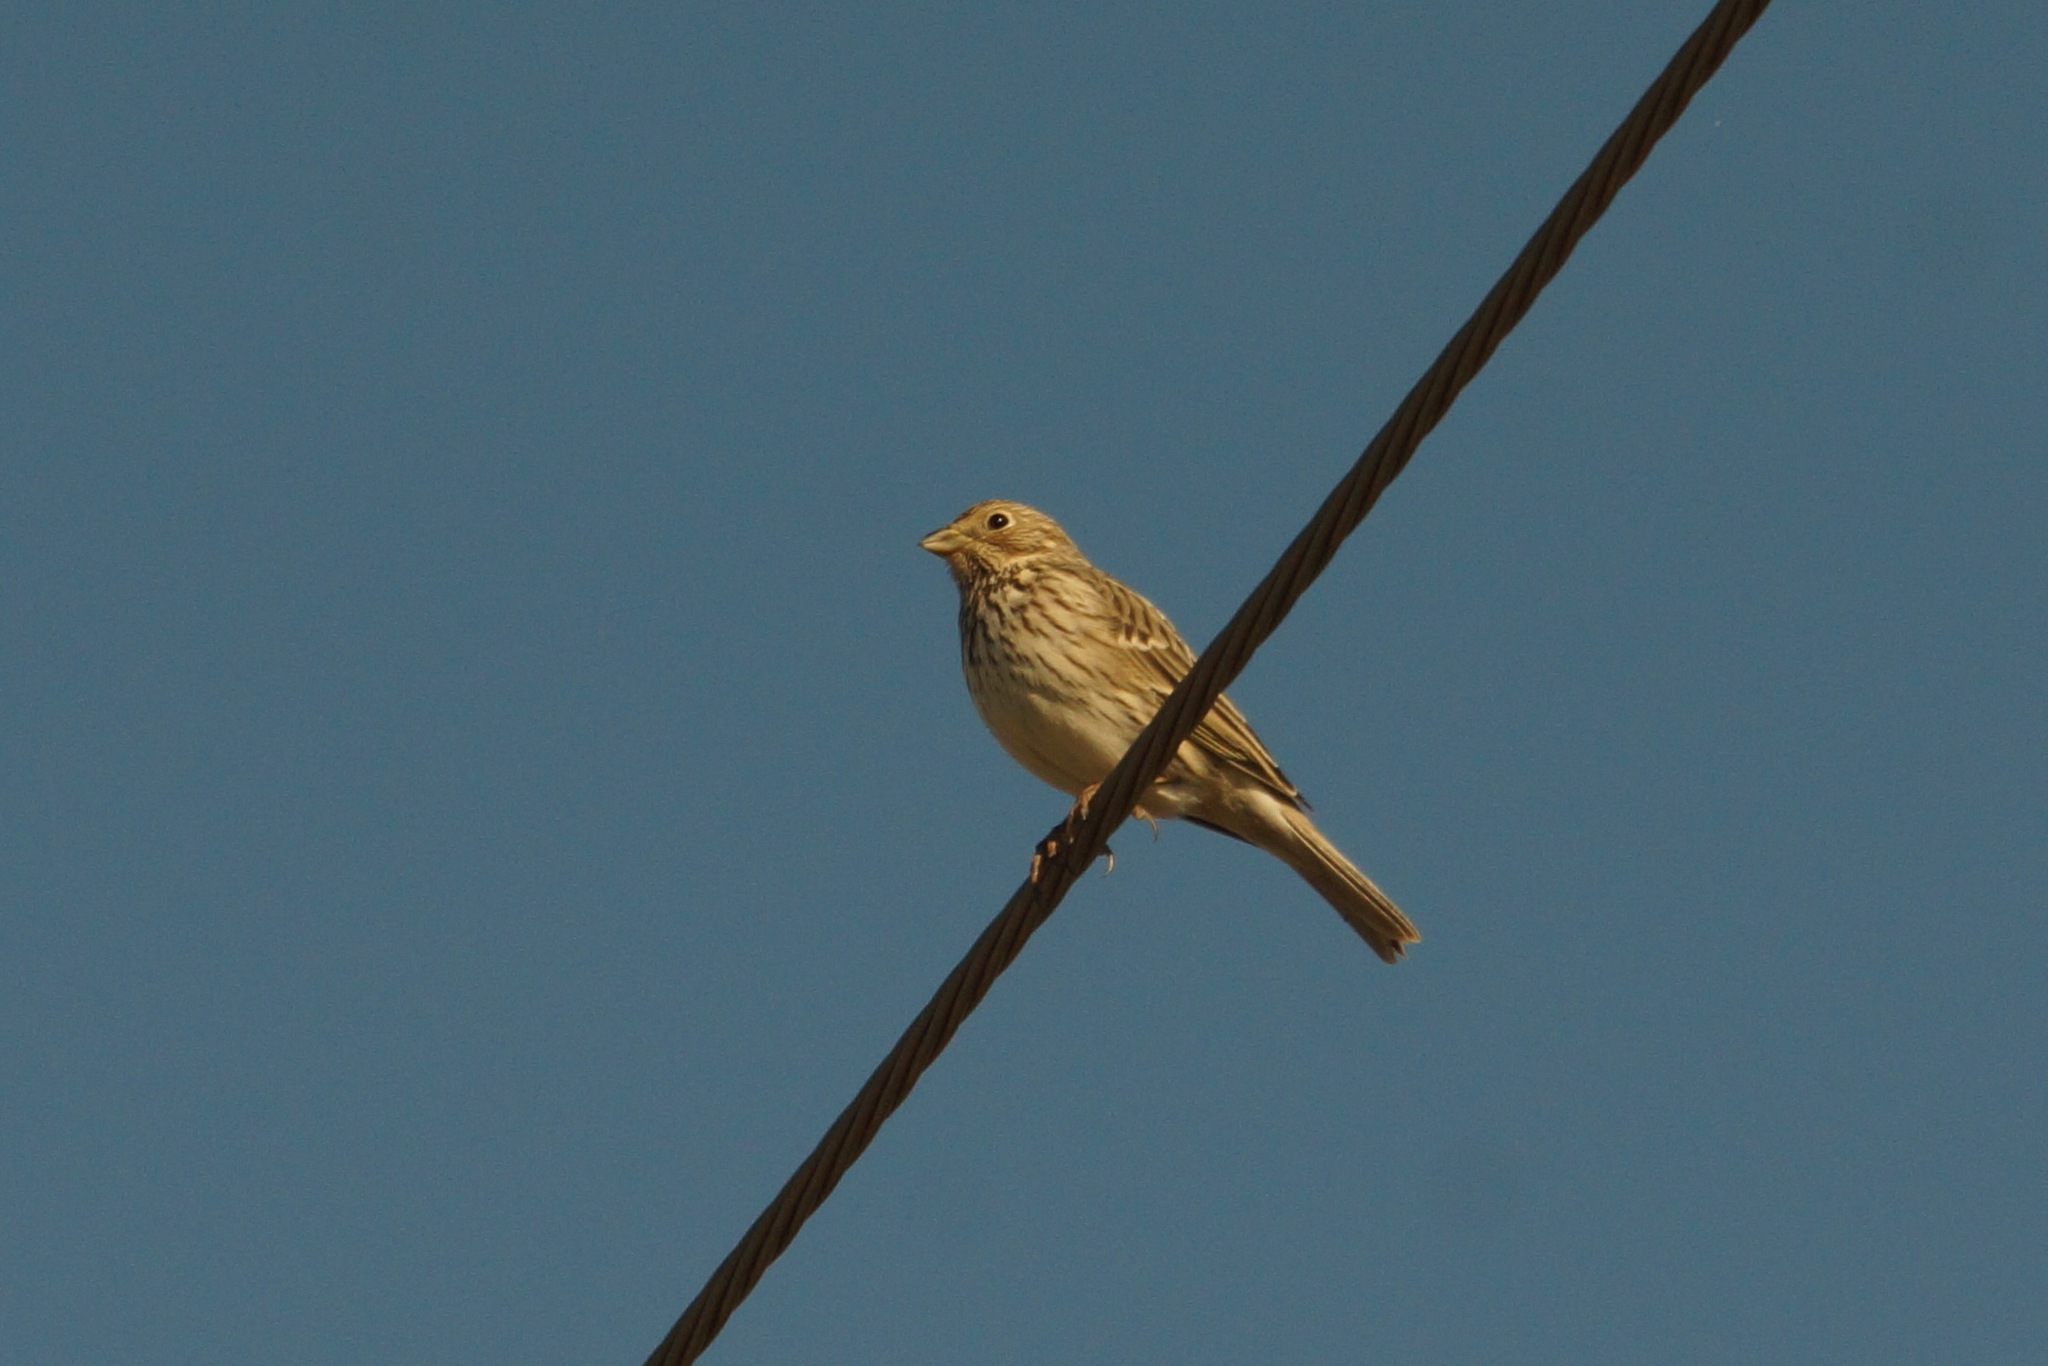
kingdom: Animalia
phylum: Chordata
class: Aves
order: Passeriformes
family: Emberizidae
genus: Emberiza
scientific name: Emberiza calandra
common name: Corn bunting
